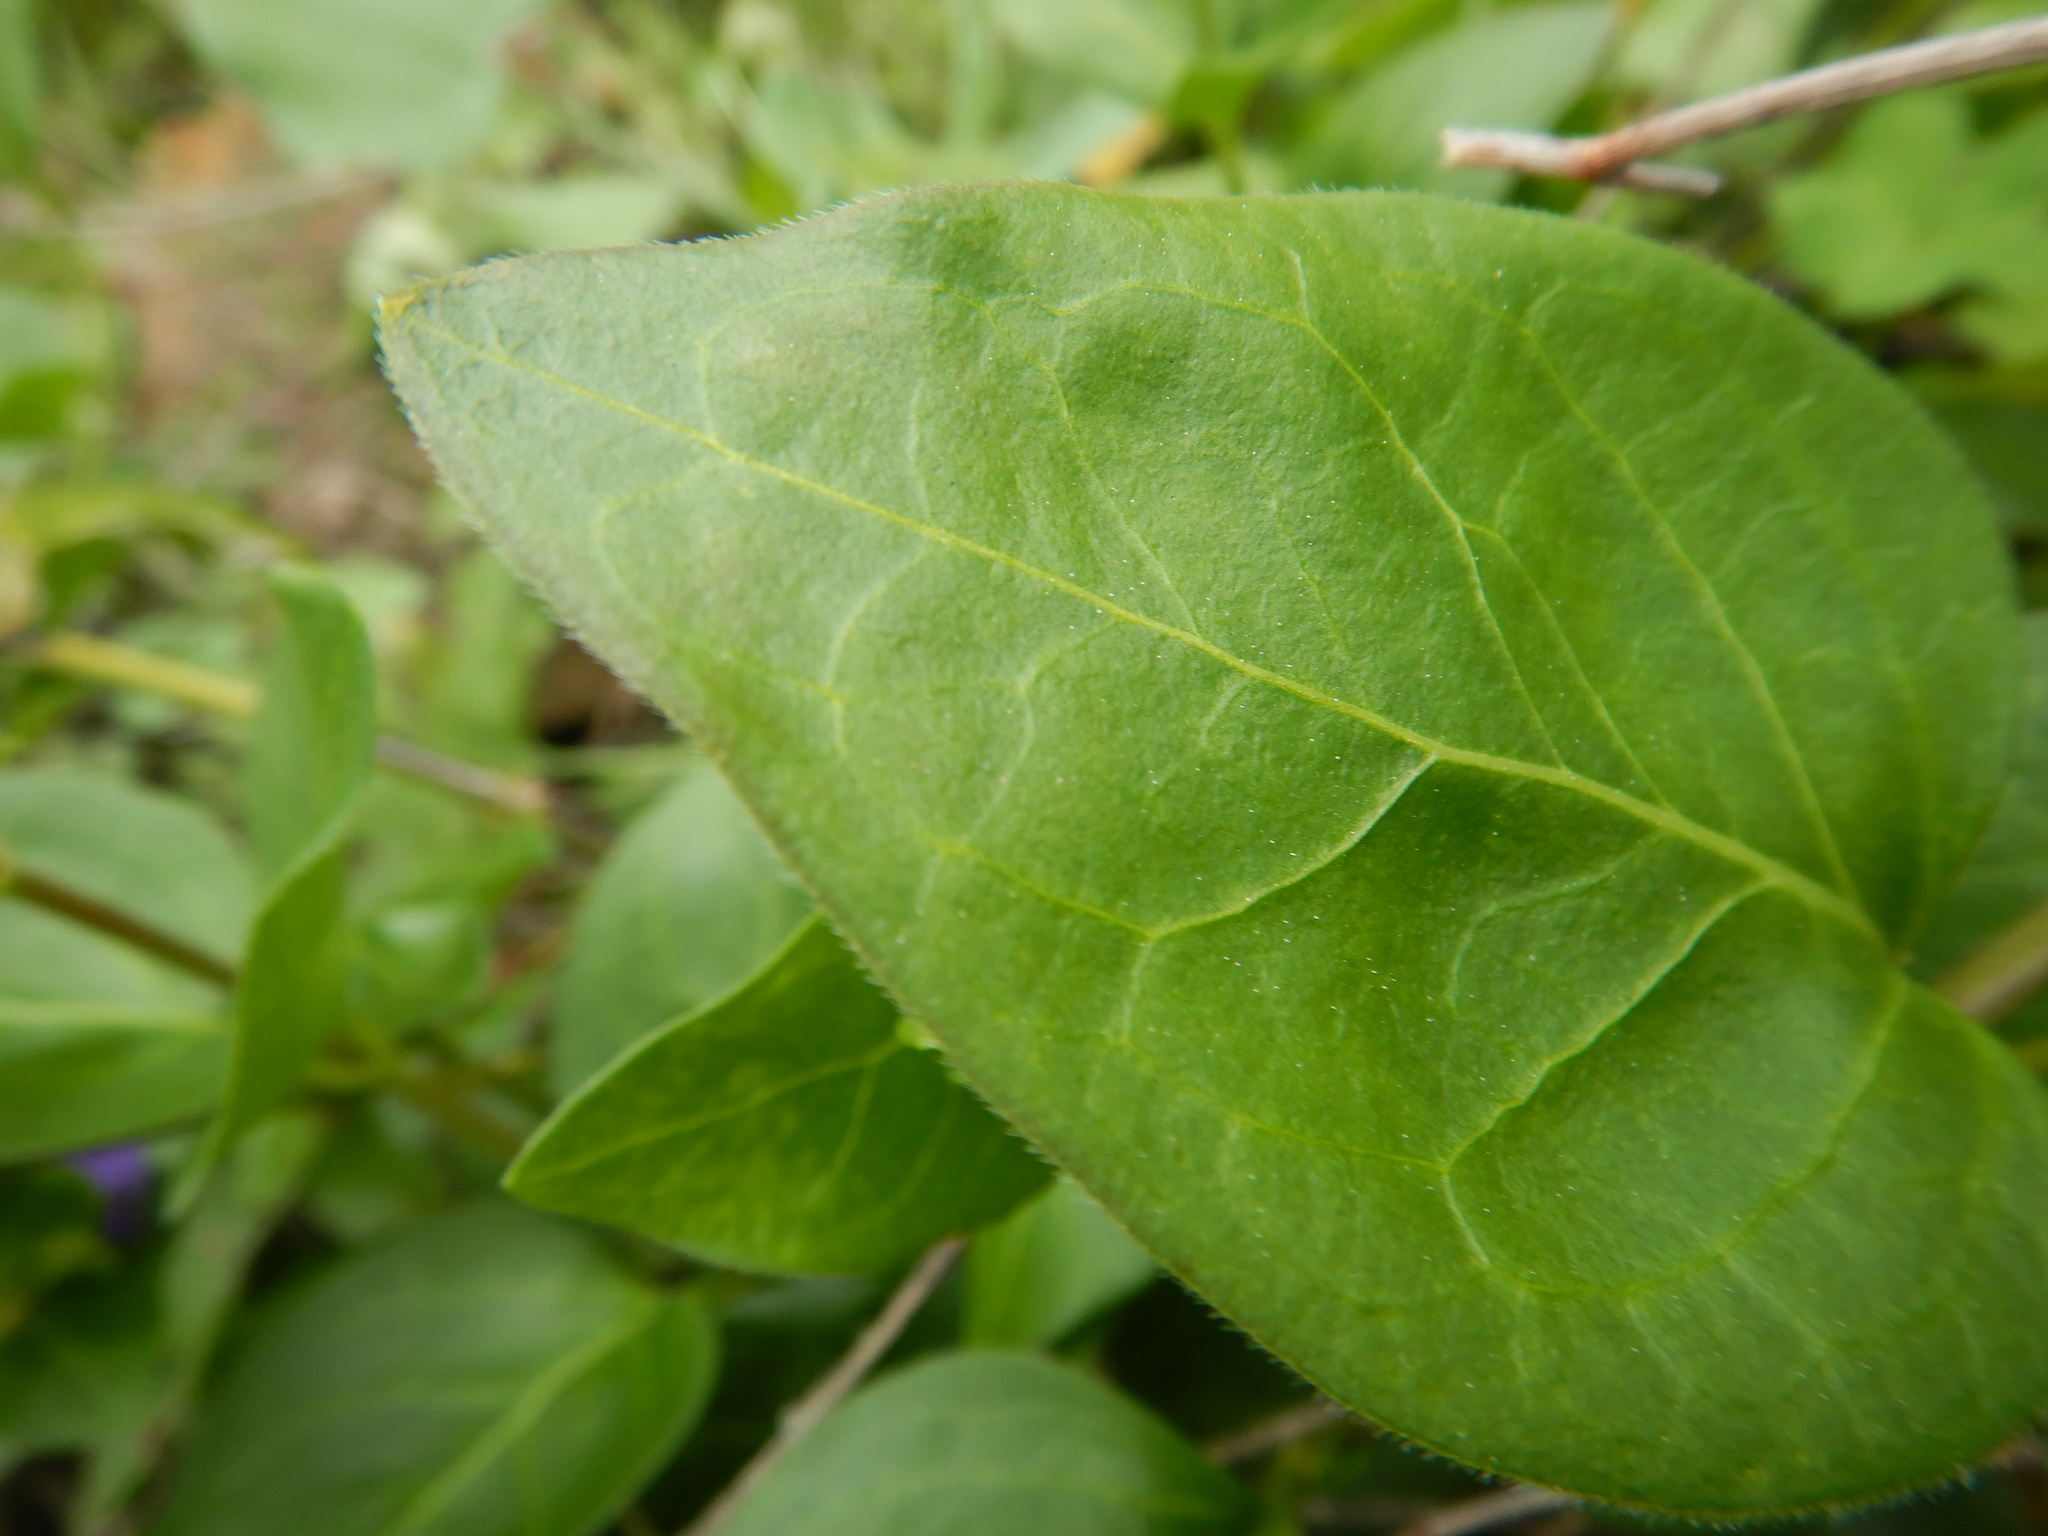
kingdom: Plantae
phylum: Tracheophyta
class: Magnoliopsida
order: Gentianales
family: Apocynaceae
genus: Vinca
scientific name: Vinca major
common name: Greater periwinkle
